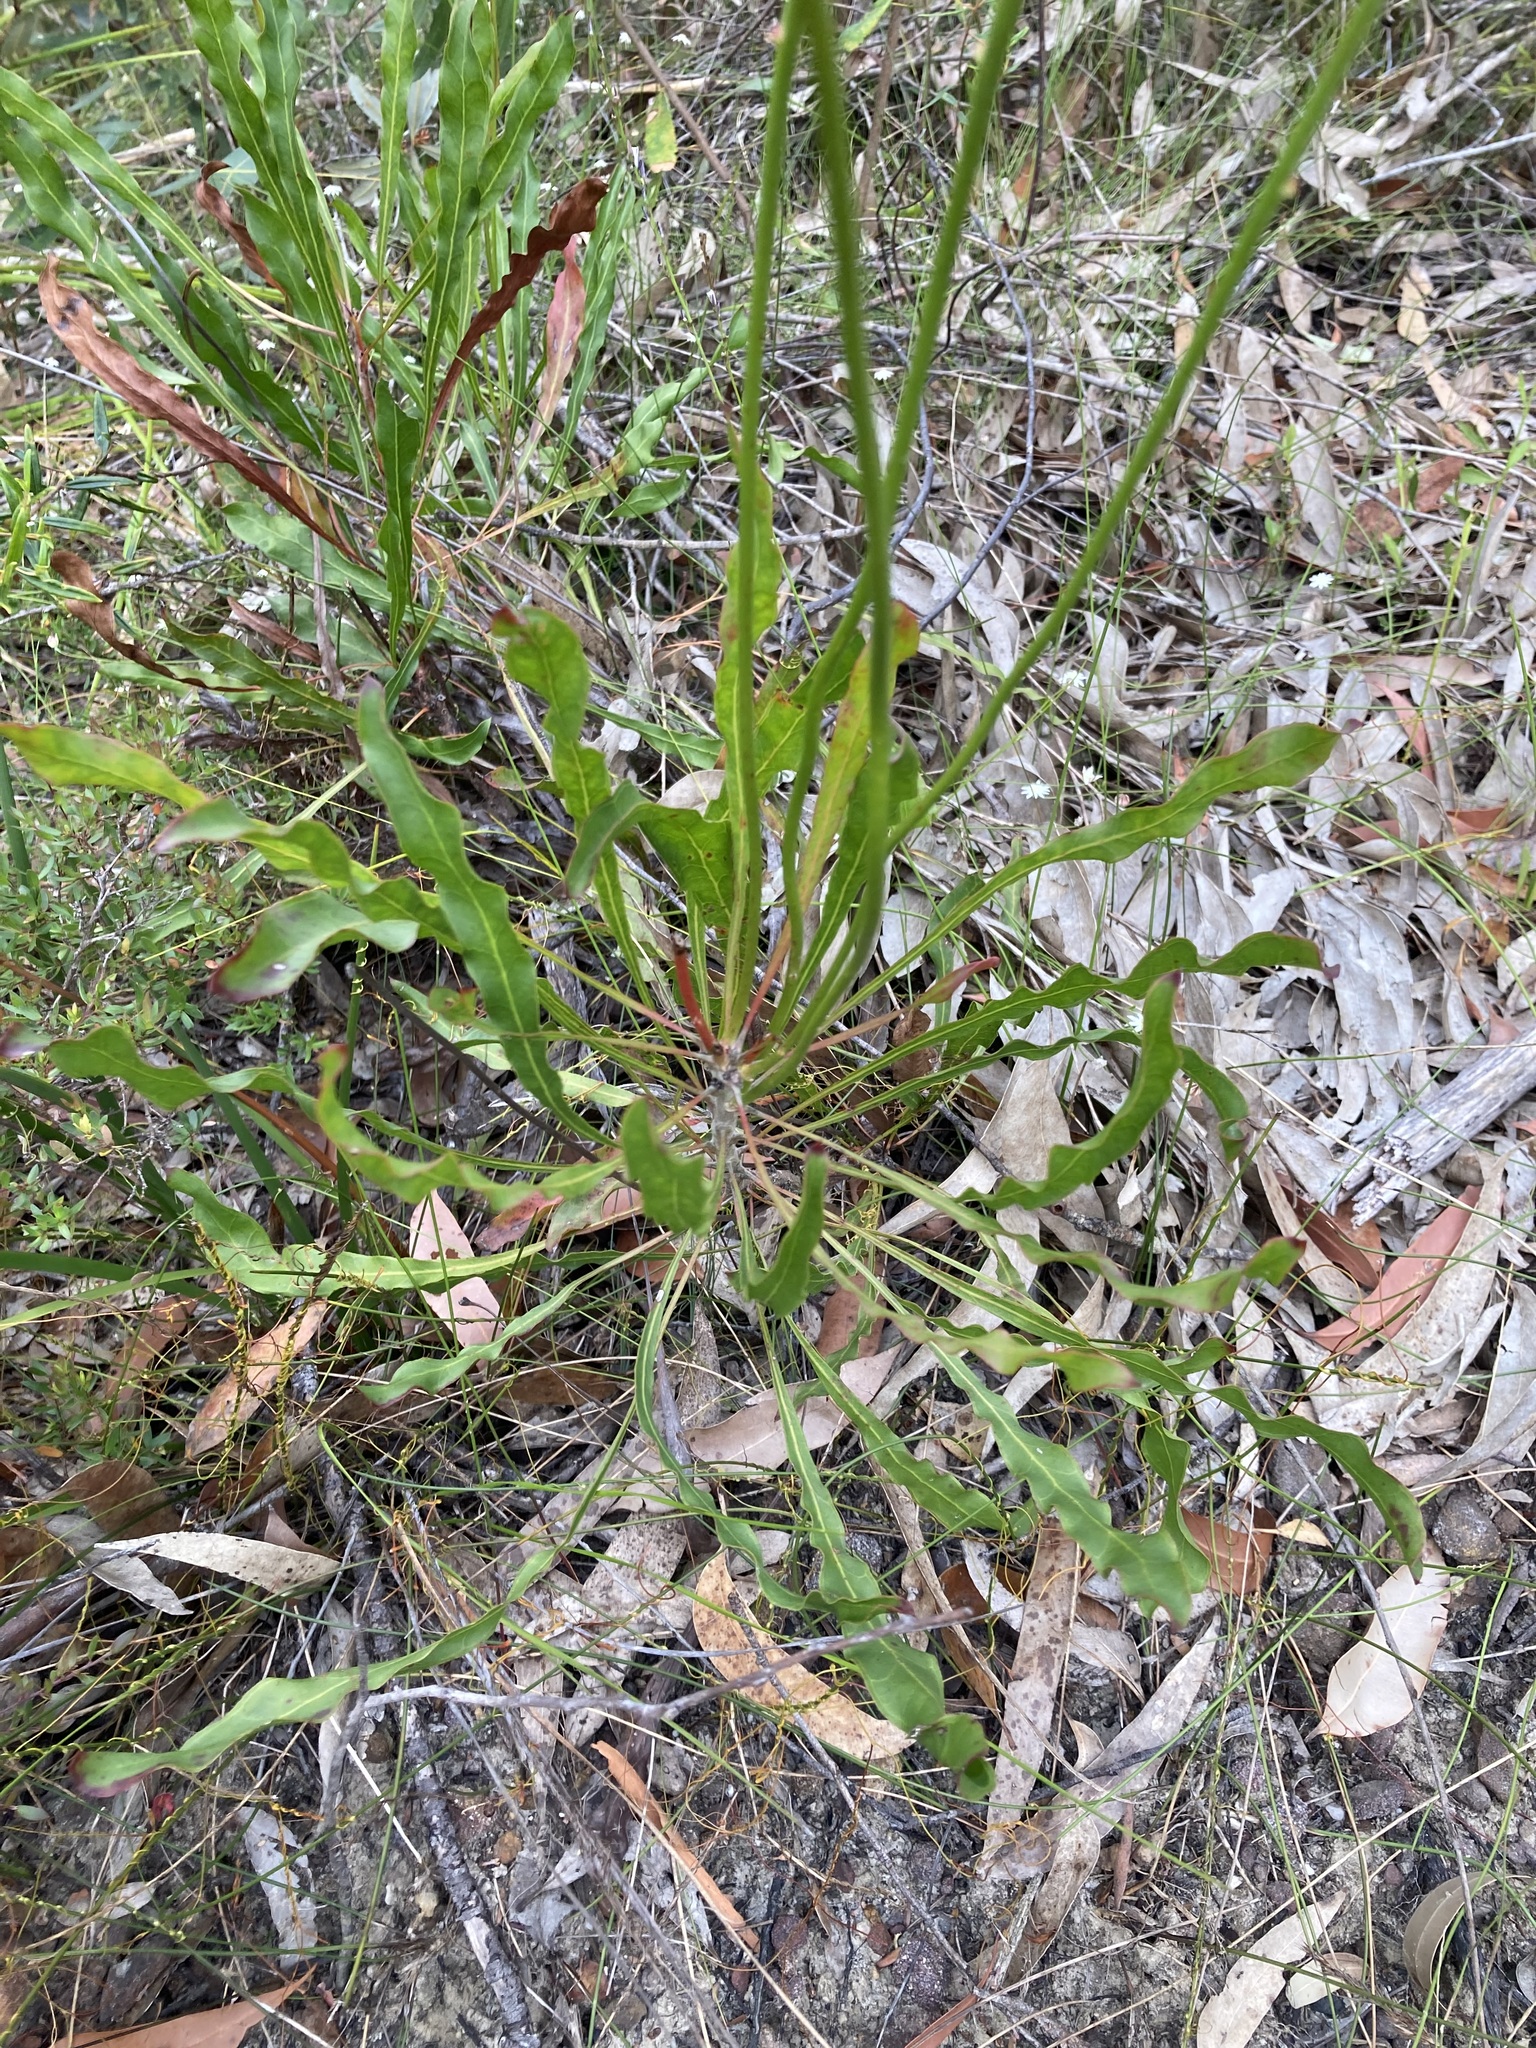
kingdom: Plantae
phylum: Tracheophyta
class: Magnoliopsida
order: Proteales
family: Proteaceae
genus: Conospermum
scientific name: Conospermum longifolium
